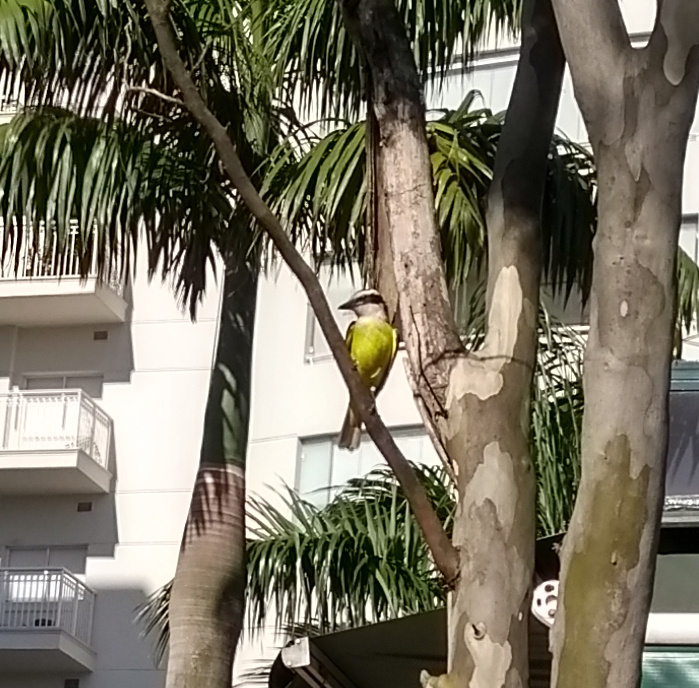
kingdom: Animalia
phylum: Chordata
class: Aves
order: Passeriformes
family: Tyrannidae
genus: Pitangus
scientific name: Pitangus sulphuratus
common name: Great kiskadee
